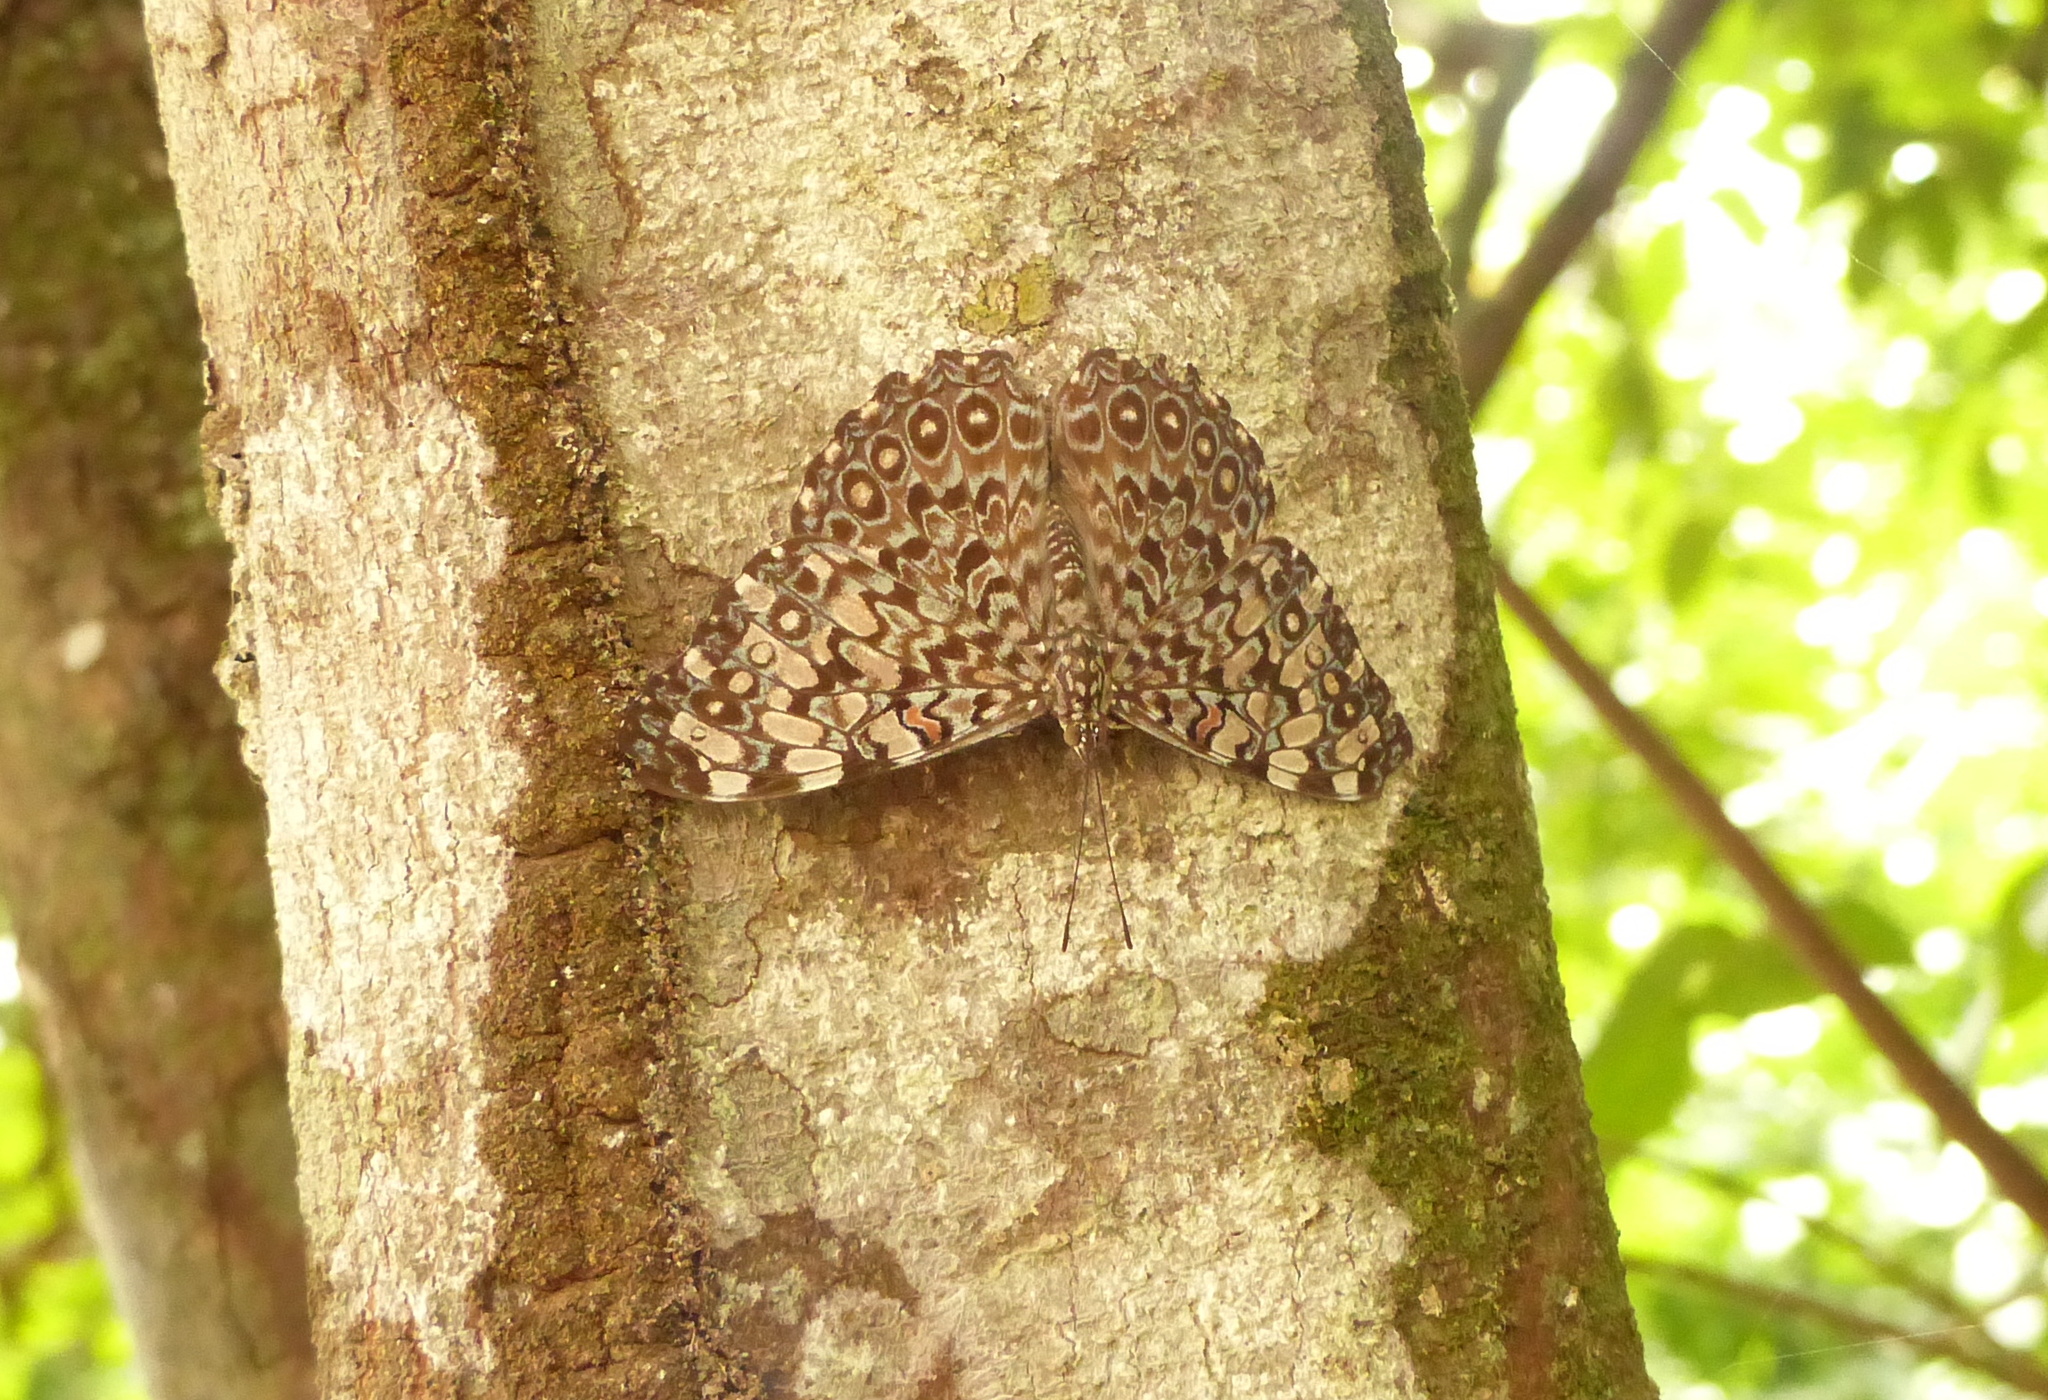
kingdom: Animalia
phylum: Arthropoda
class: Insecta
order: Lepidoptera
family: Nymphalidae
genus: Hamadryas
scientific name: Hamadryas feronia
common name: Variable cracker
